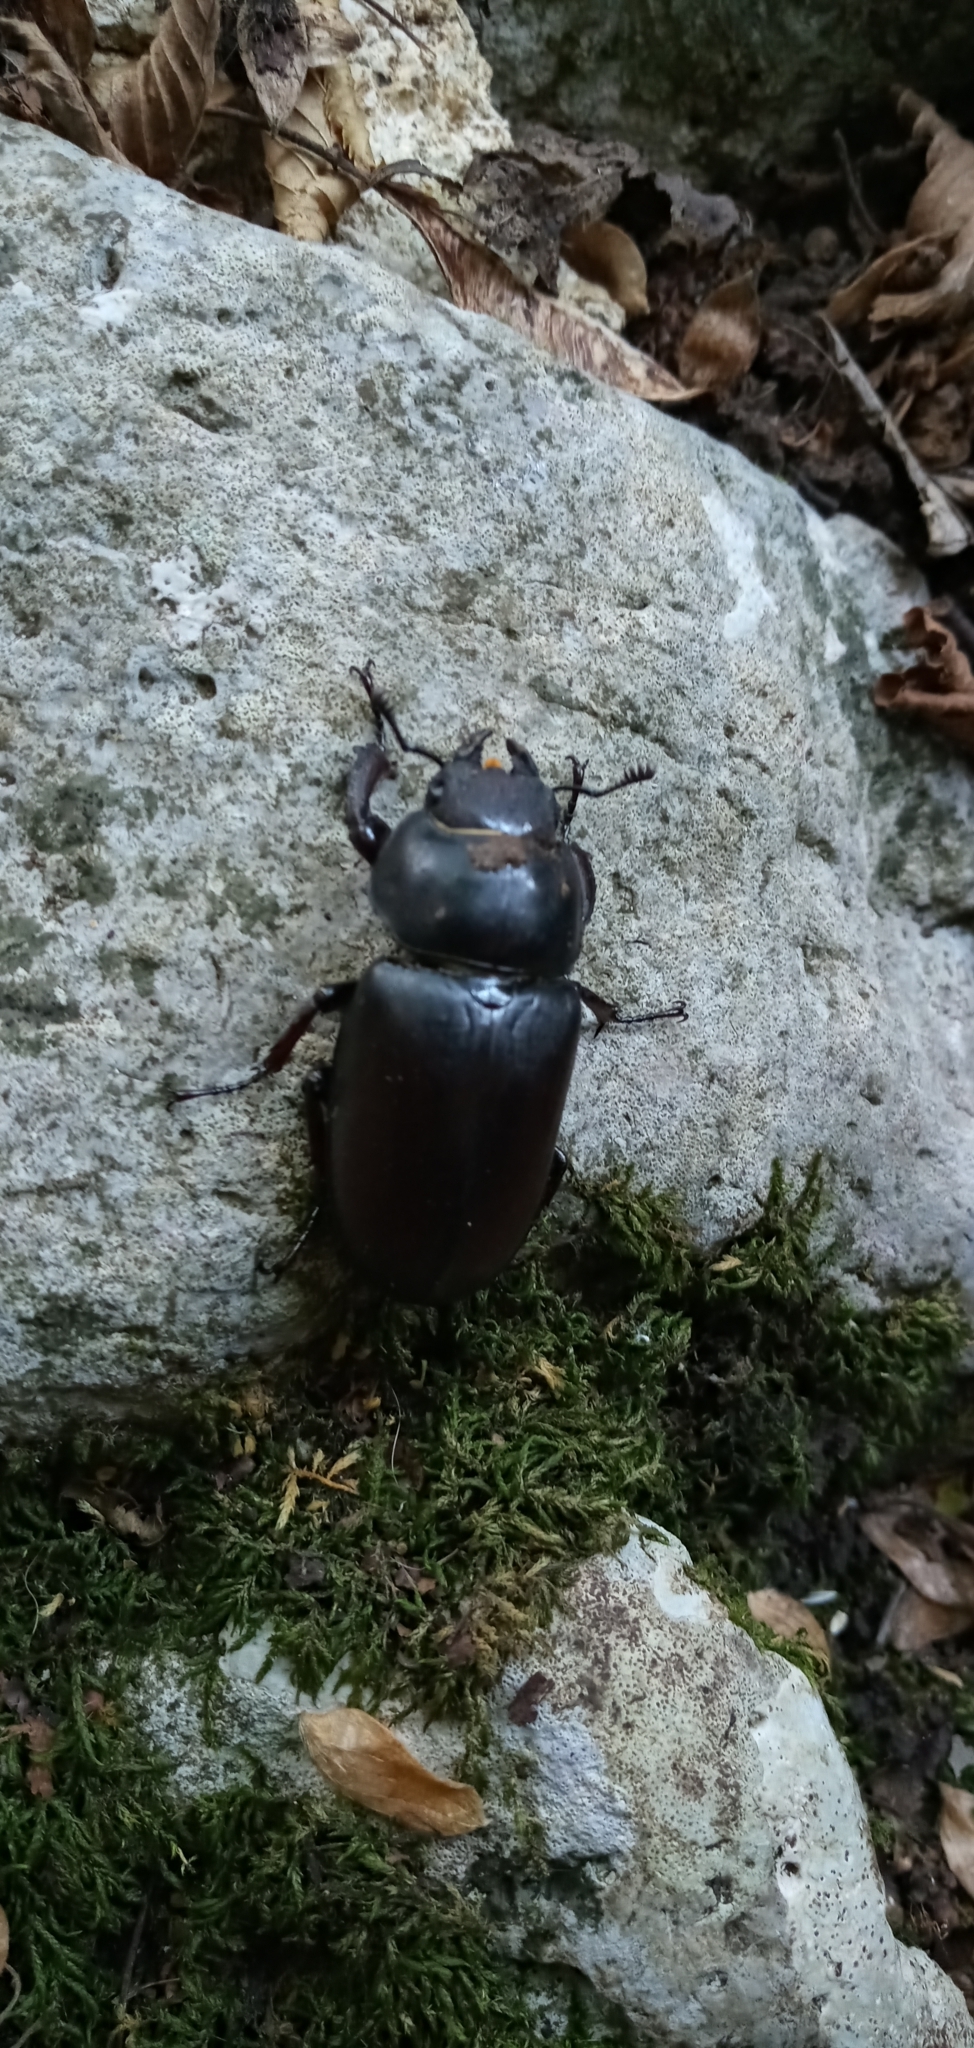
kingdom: Animalia
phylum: Arthropoda
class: Insecta
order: Coleoptera
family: Lucanidae
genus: Lucanus
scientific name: Lucanus cervus
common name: Stag beetle
